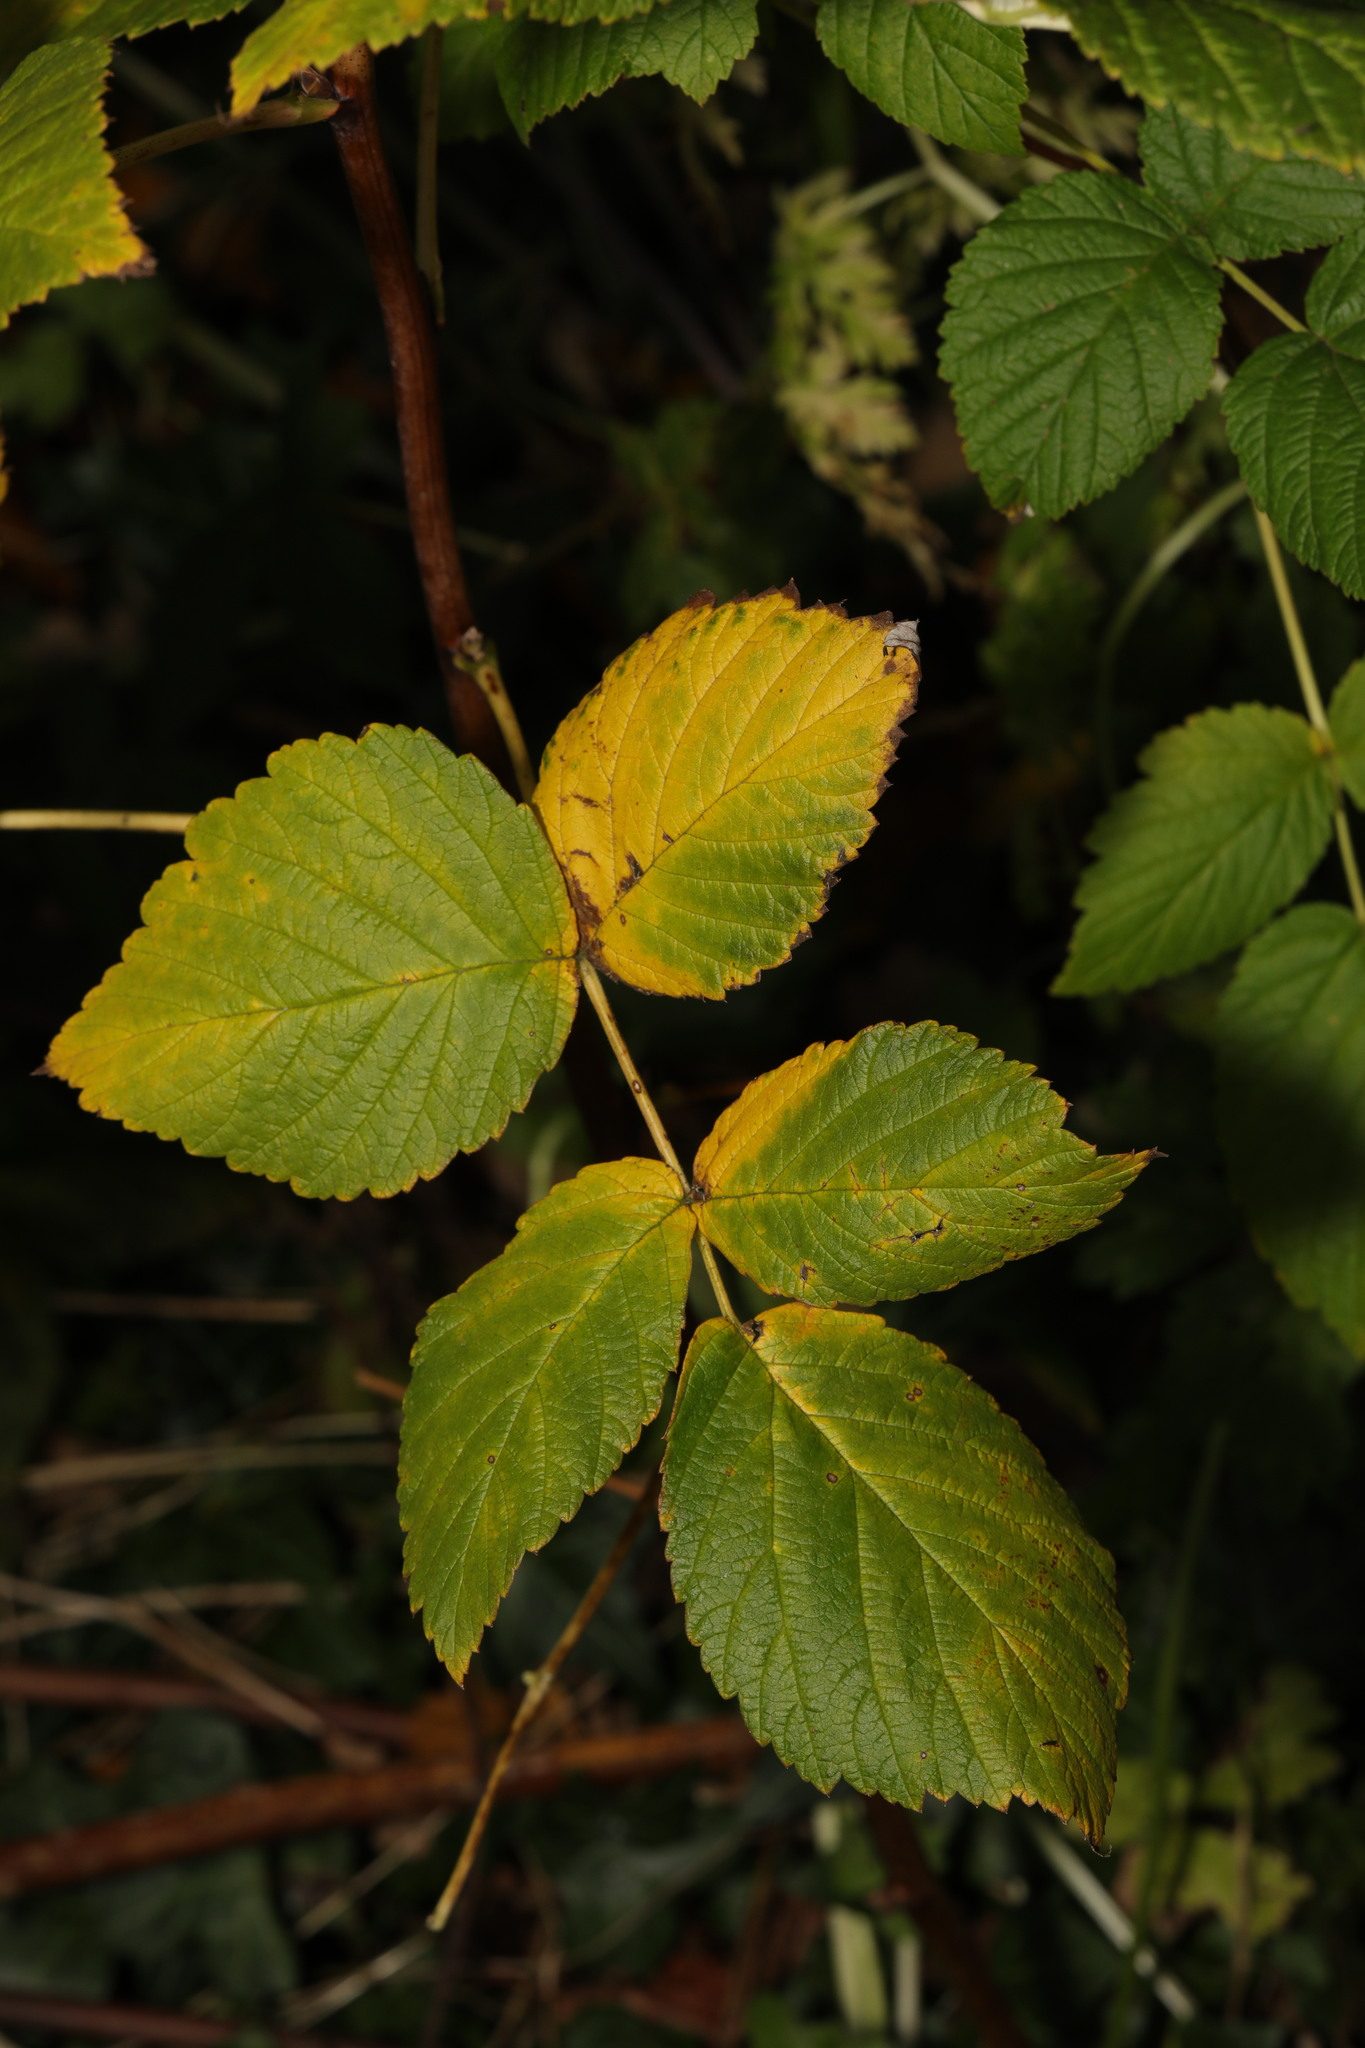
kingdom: Plantae
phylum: Tracheophyta
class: Magnoliopsida
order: Rosales
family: Rosaceae
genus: Rubus
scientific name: Rubus idaeus
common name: Raspberry
